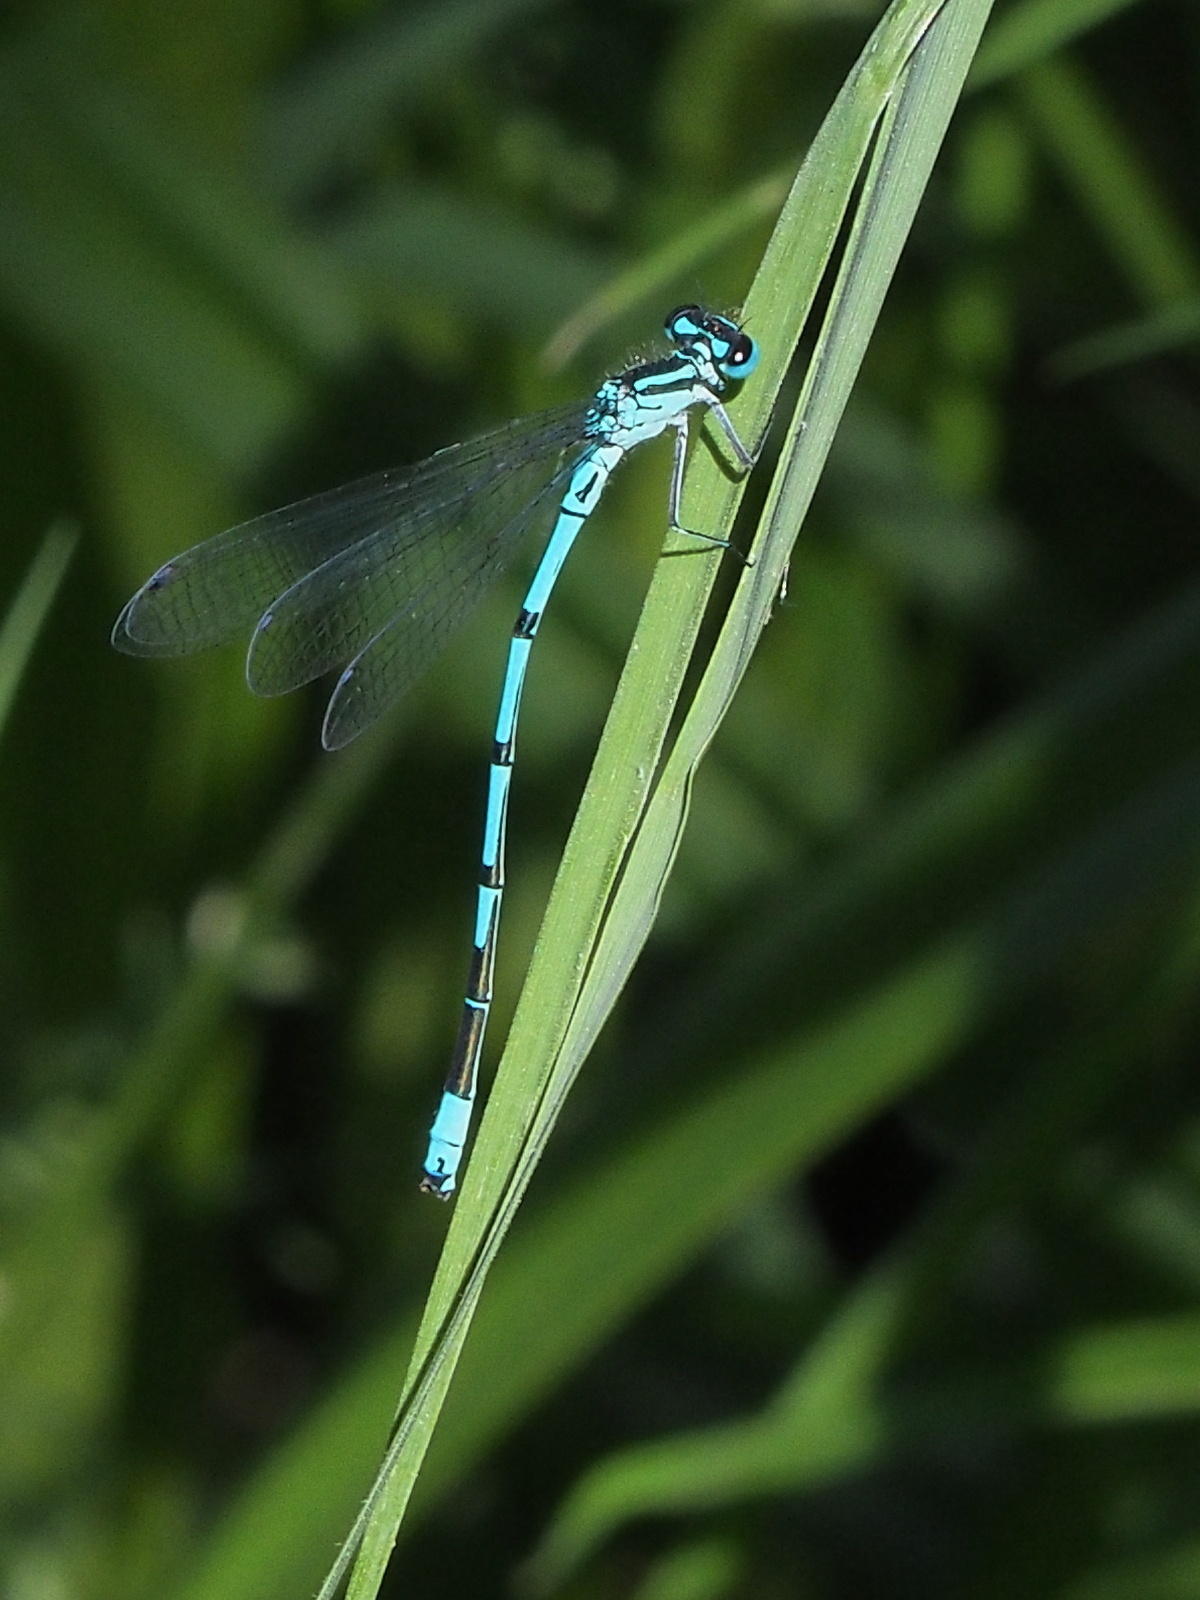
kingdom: Animalia
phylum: Arthropoda
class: Insecta
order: Odonata
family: Coenagrionidae
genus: Coenagrion
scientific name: Coenagrion puella
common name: Azure damselfly
